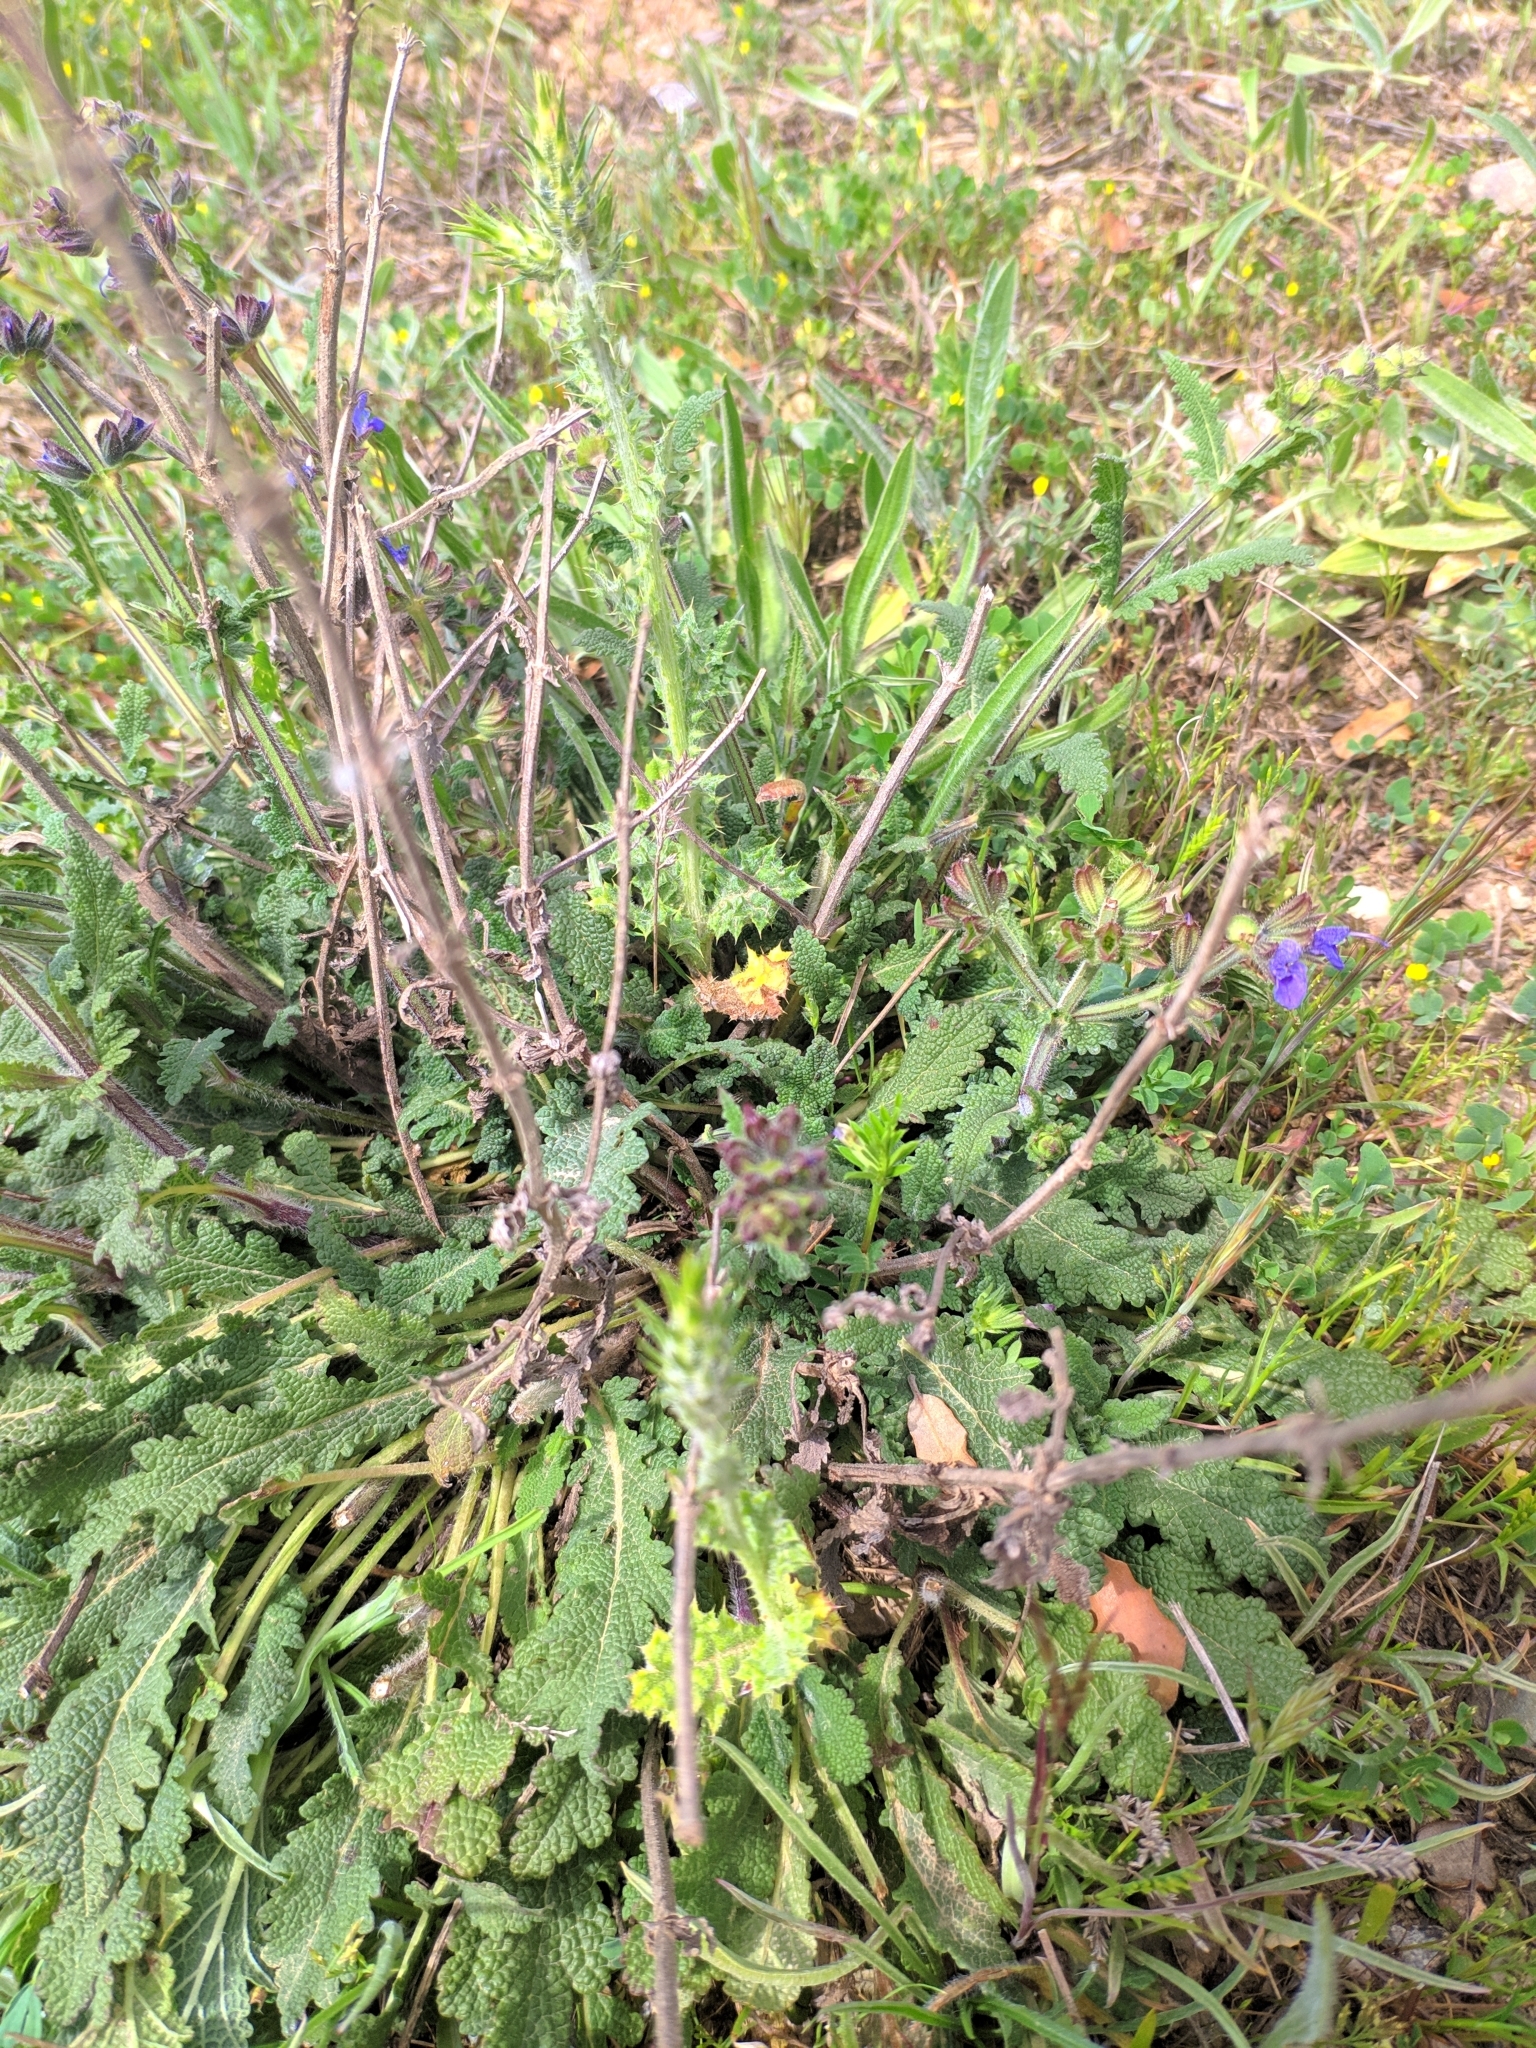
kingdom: Plantae
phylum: Tracheophyta
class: Magnoliopsida
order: Lamiales
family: Lamiaceae
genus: Salvia
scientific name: Salvia verbenaca
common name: Wild clary
